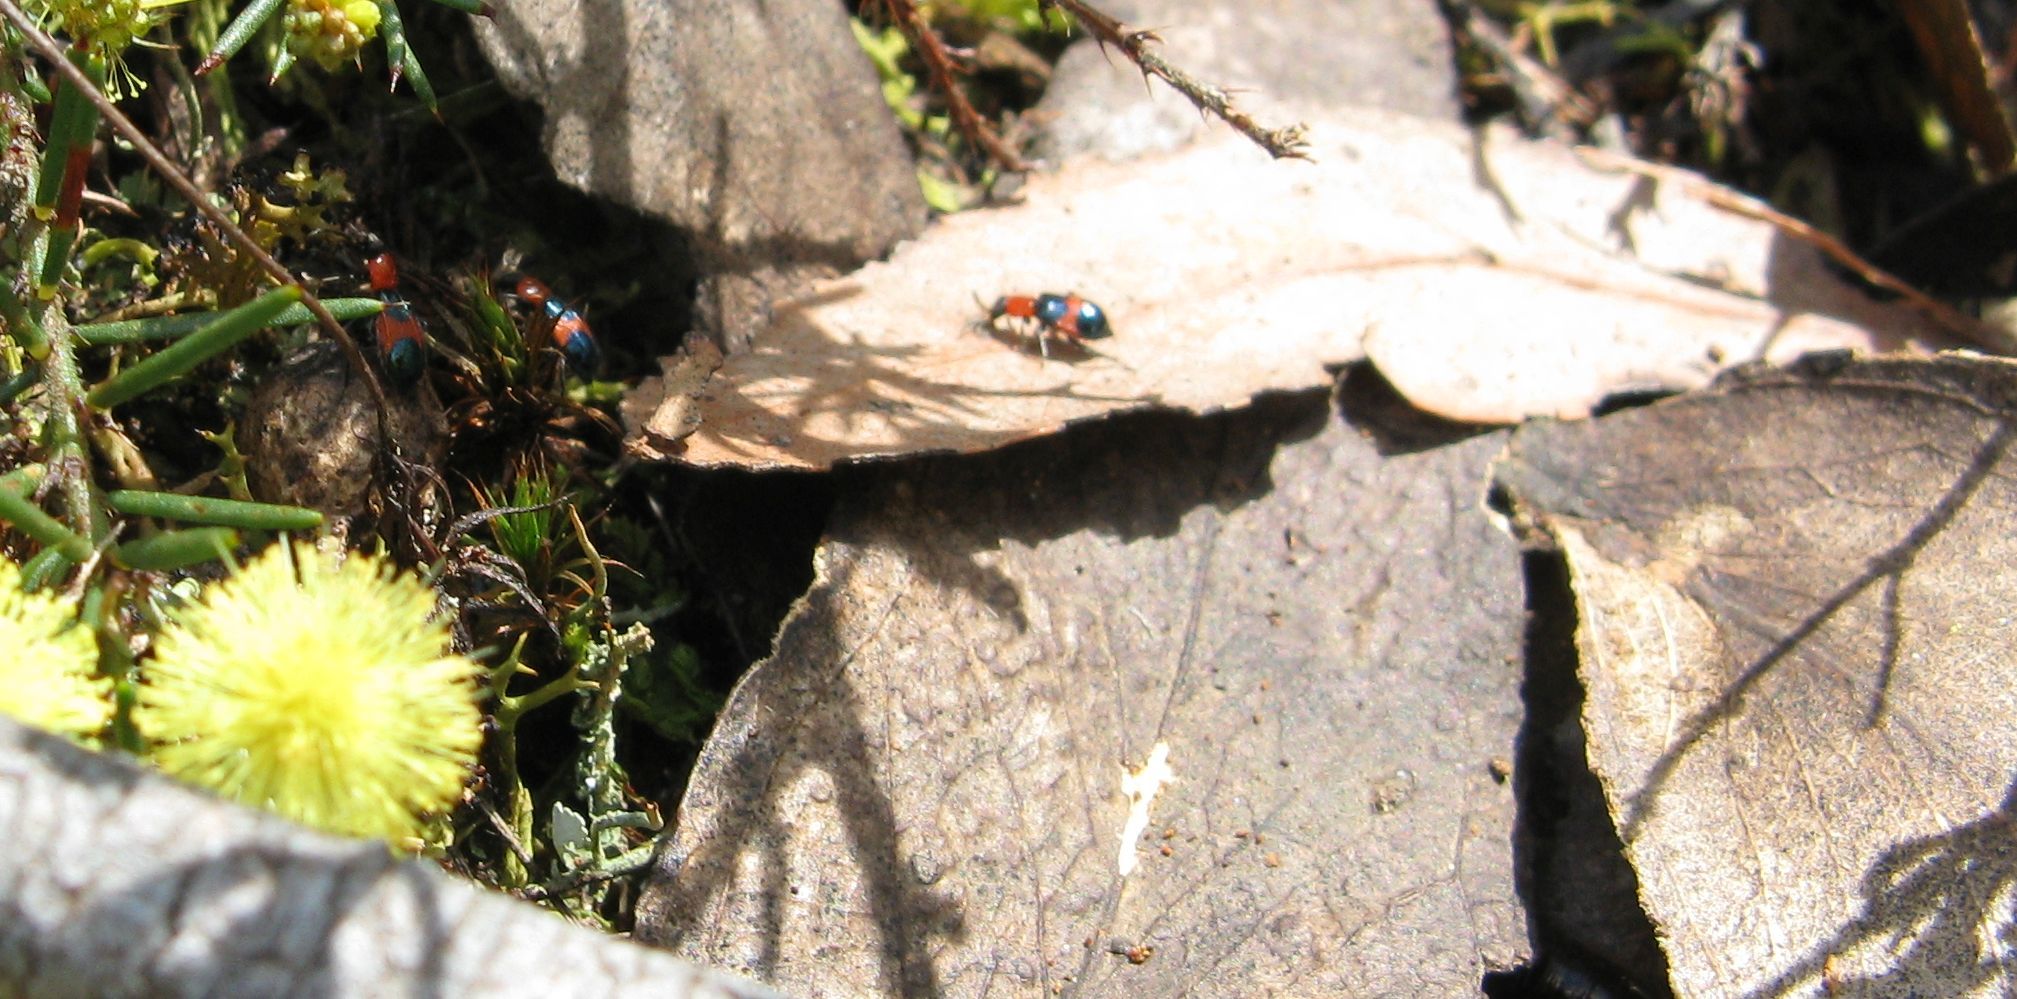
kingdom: Animalia
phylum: Arthropoda
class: Insecta
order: Coleoptera
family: Melyridae
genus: Dicranolaius
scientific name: Dicranolaius
